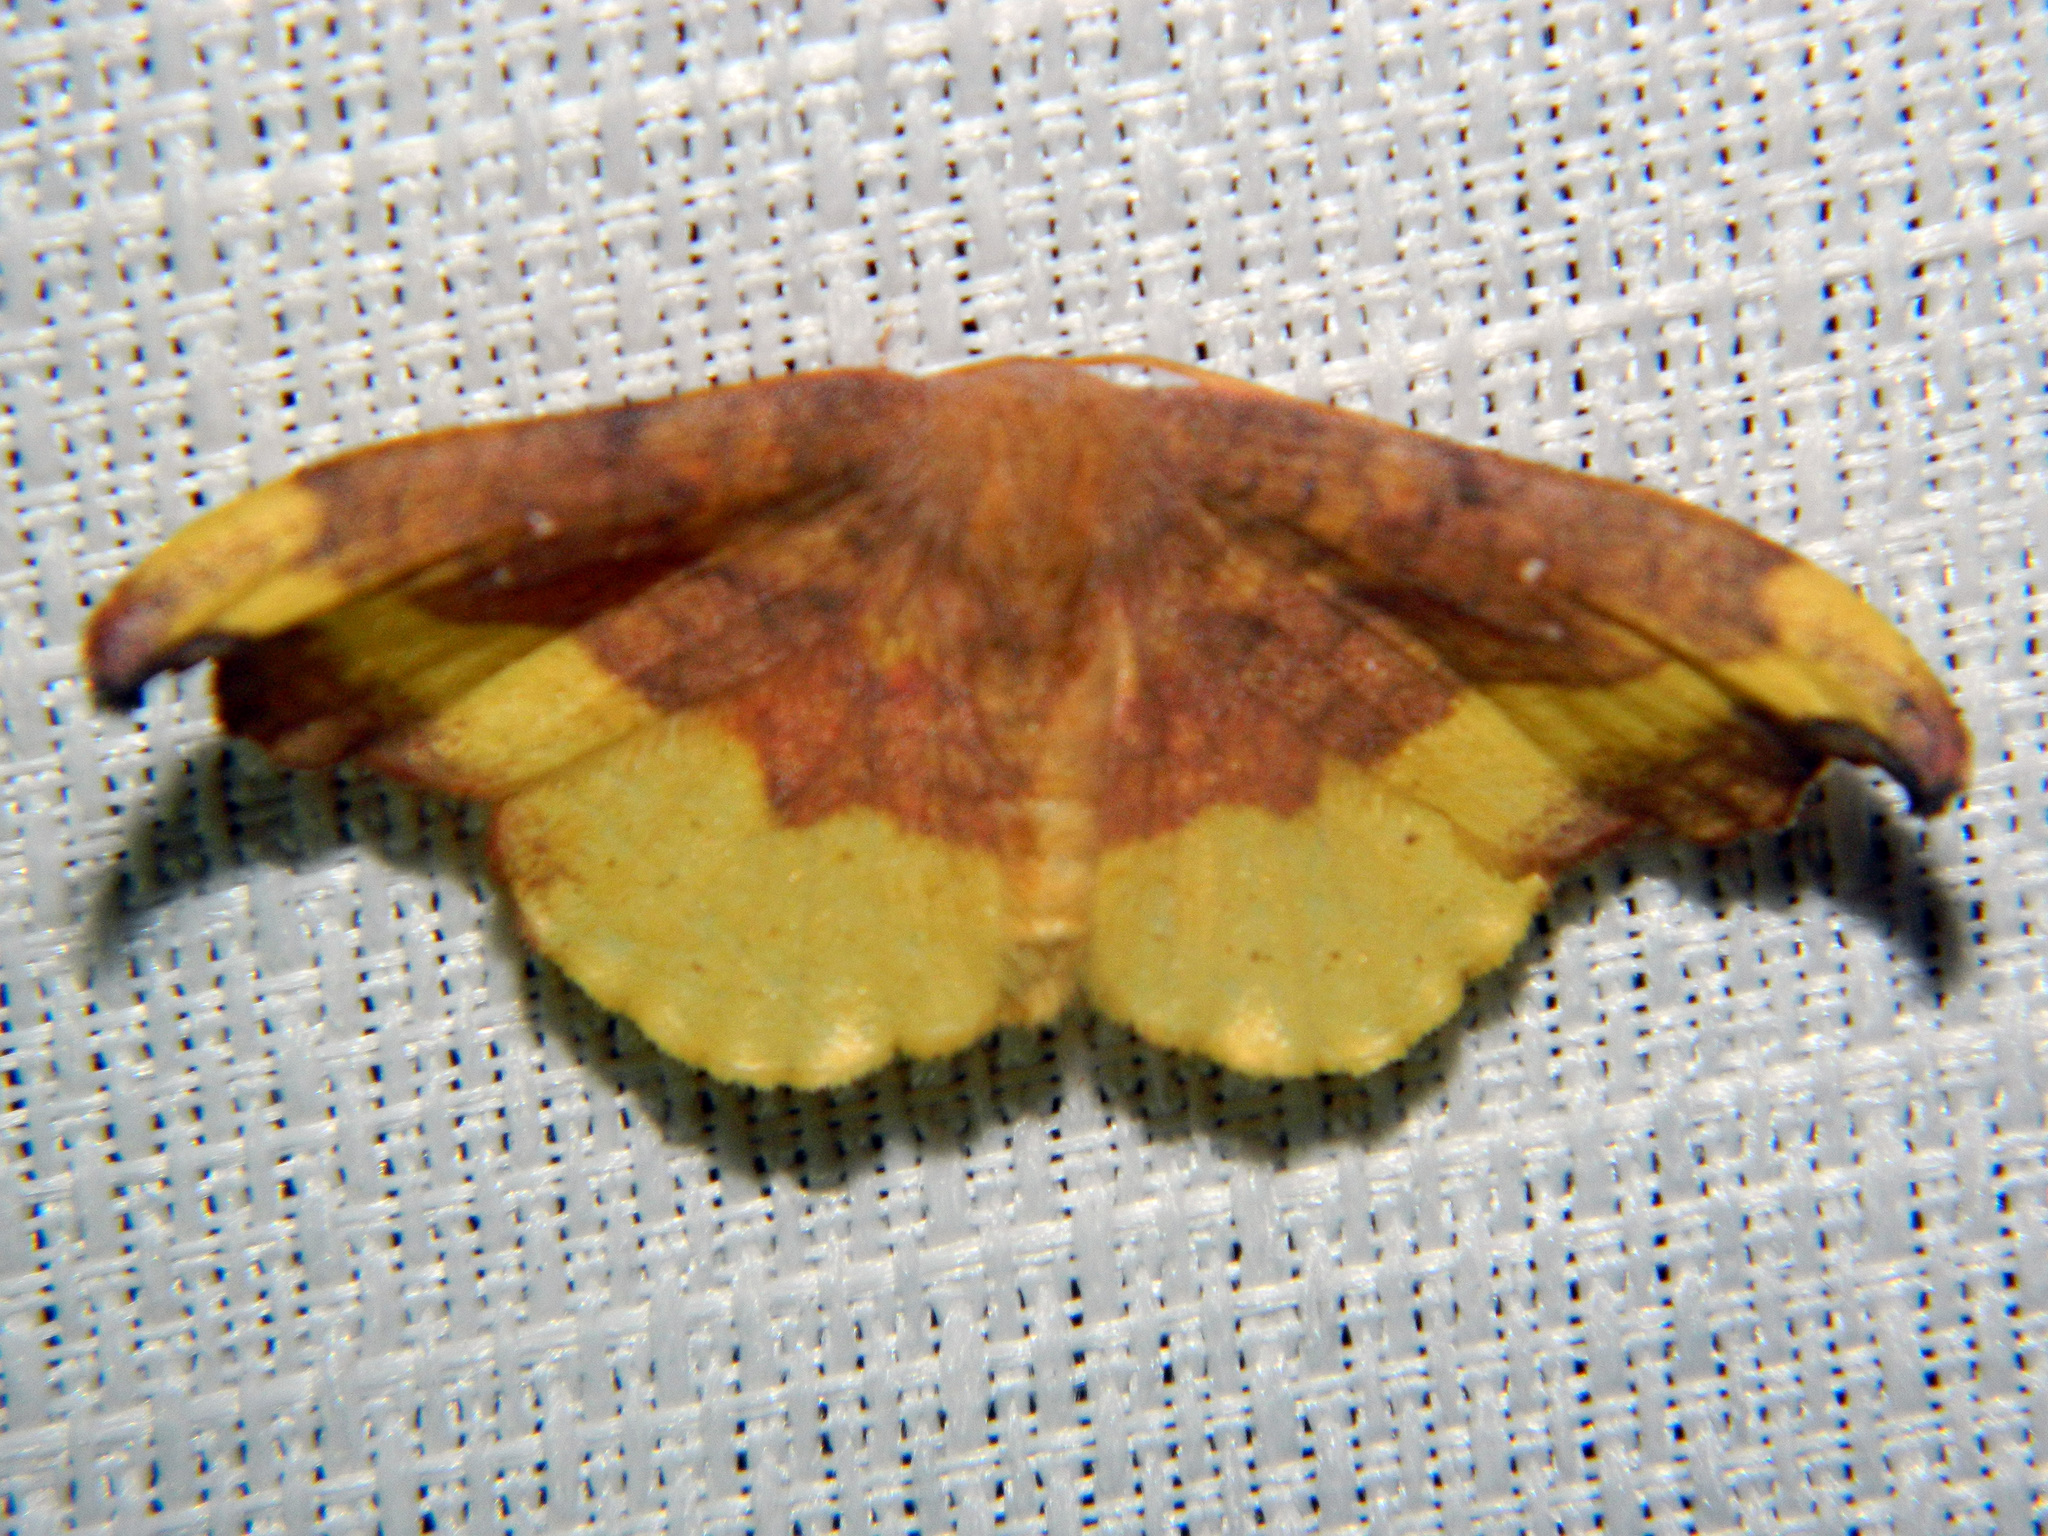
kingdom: Animalia
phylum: Arthropoda
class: Insecta
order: Lepidoptera
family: Drepanidae
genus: Oreta
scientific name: Oreta rosea
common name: Rose hooktip
